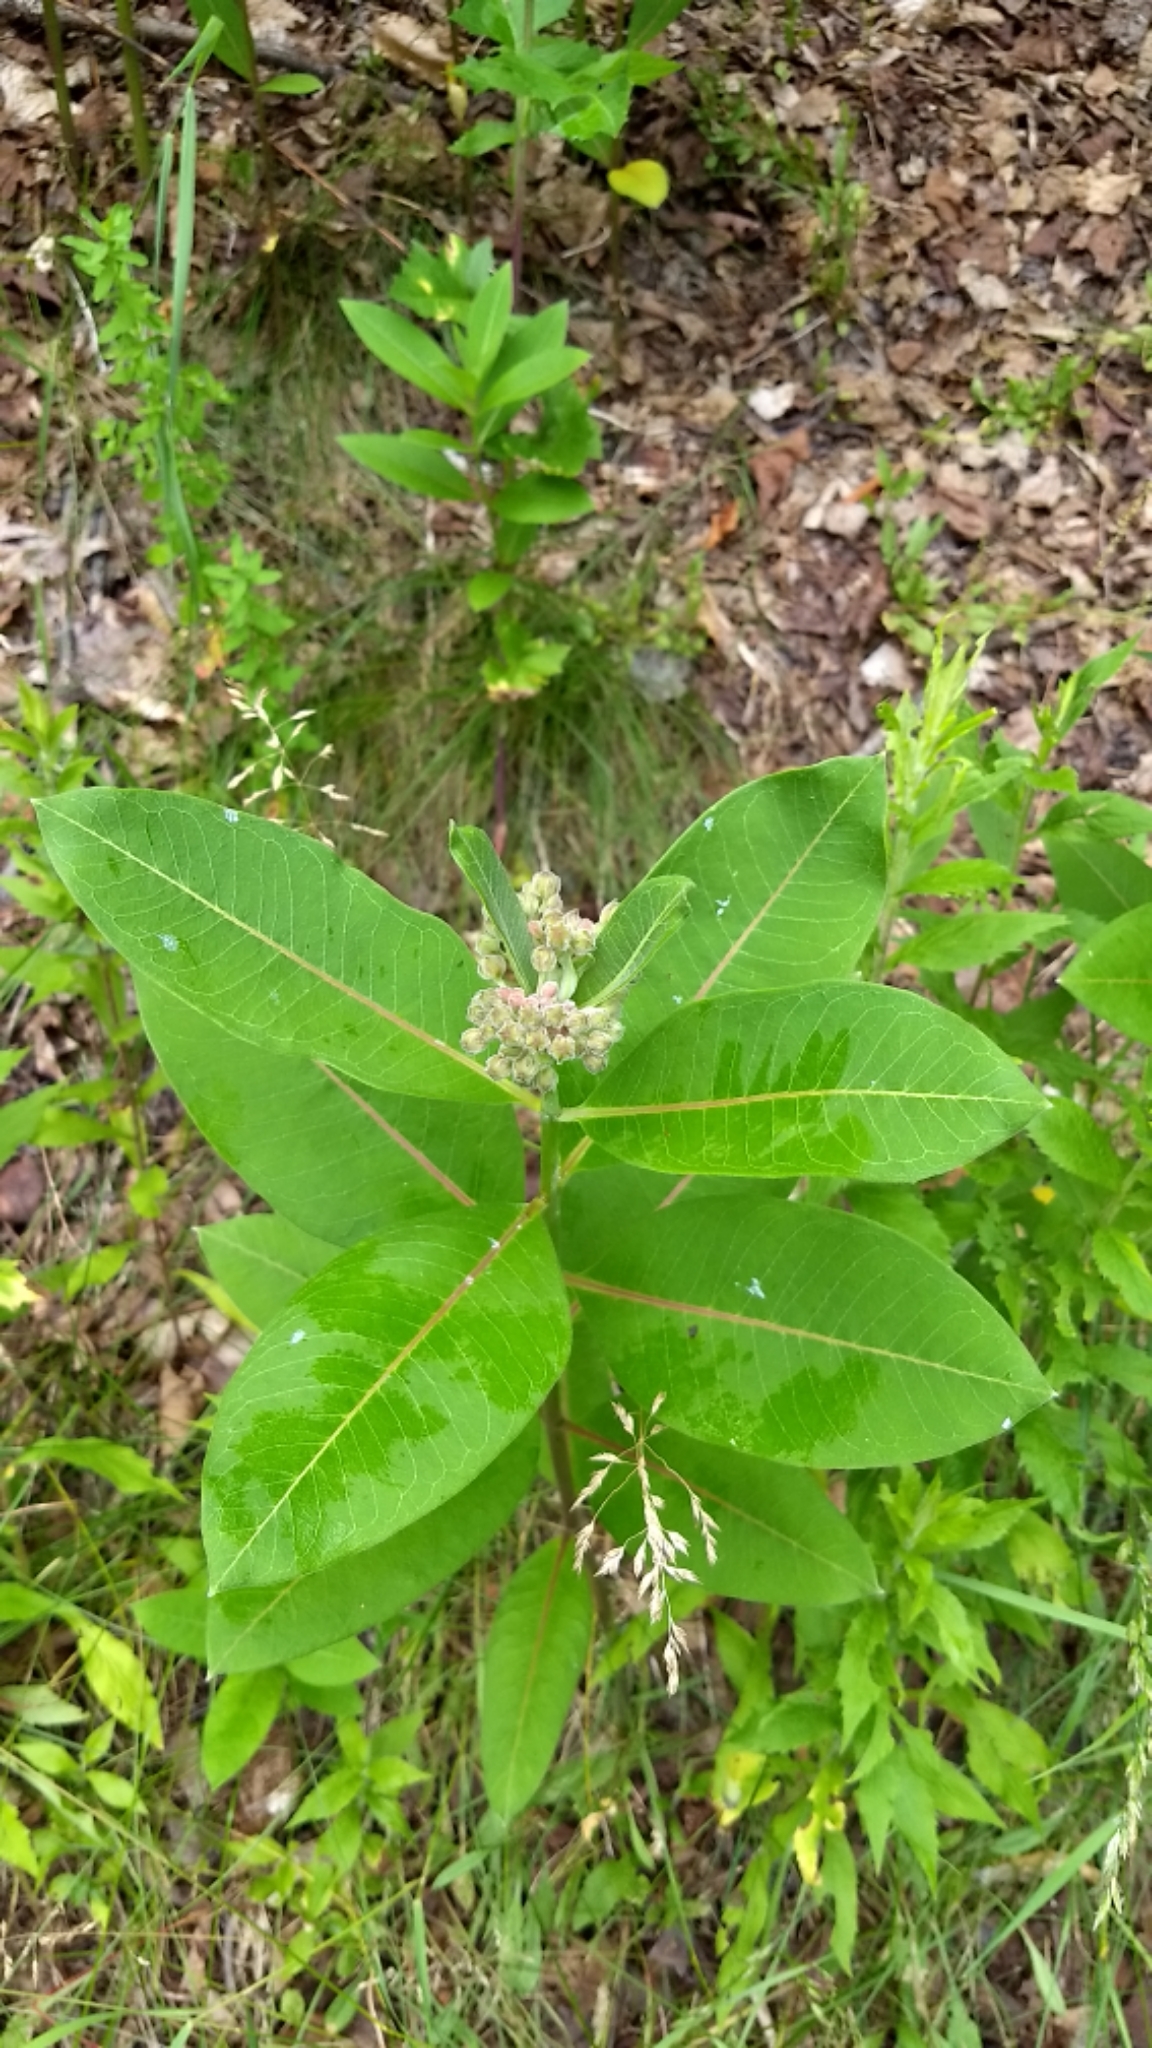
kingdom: Plantae
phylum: Tracheophyta
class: Magnoliopsida
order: Gentianales
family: Apocynaceae
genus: Asclepias
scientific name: Asclepias syriaca
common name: Common milkweed
